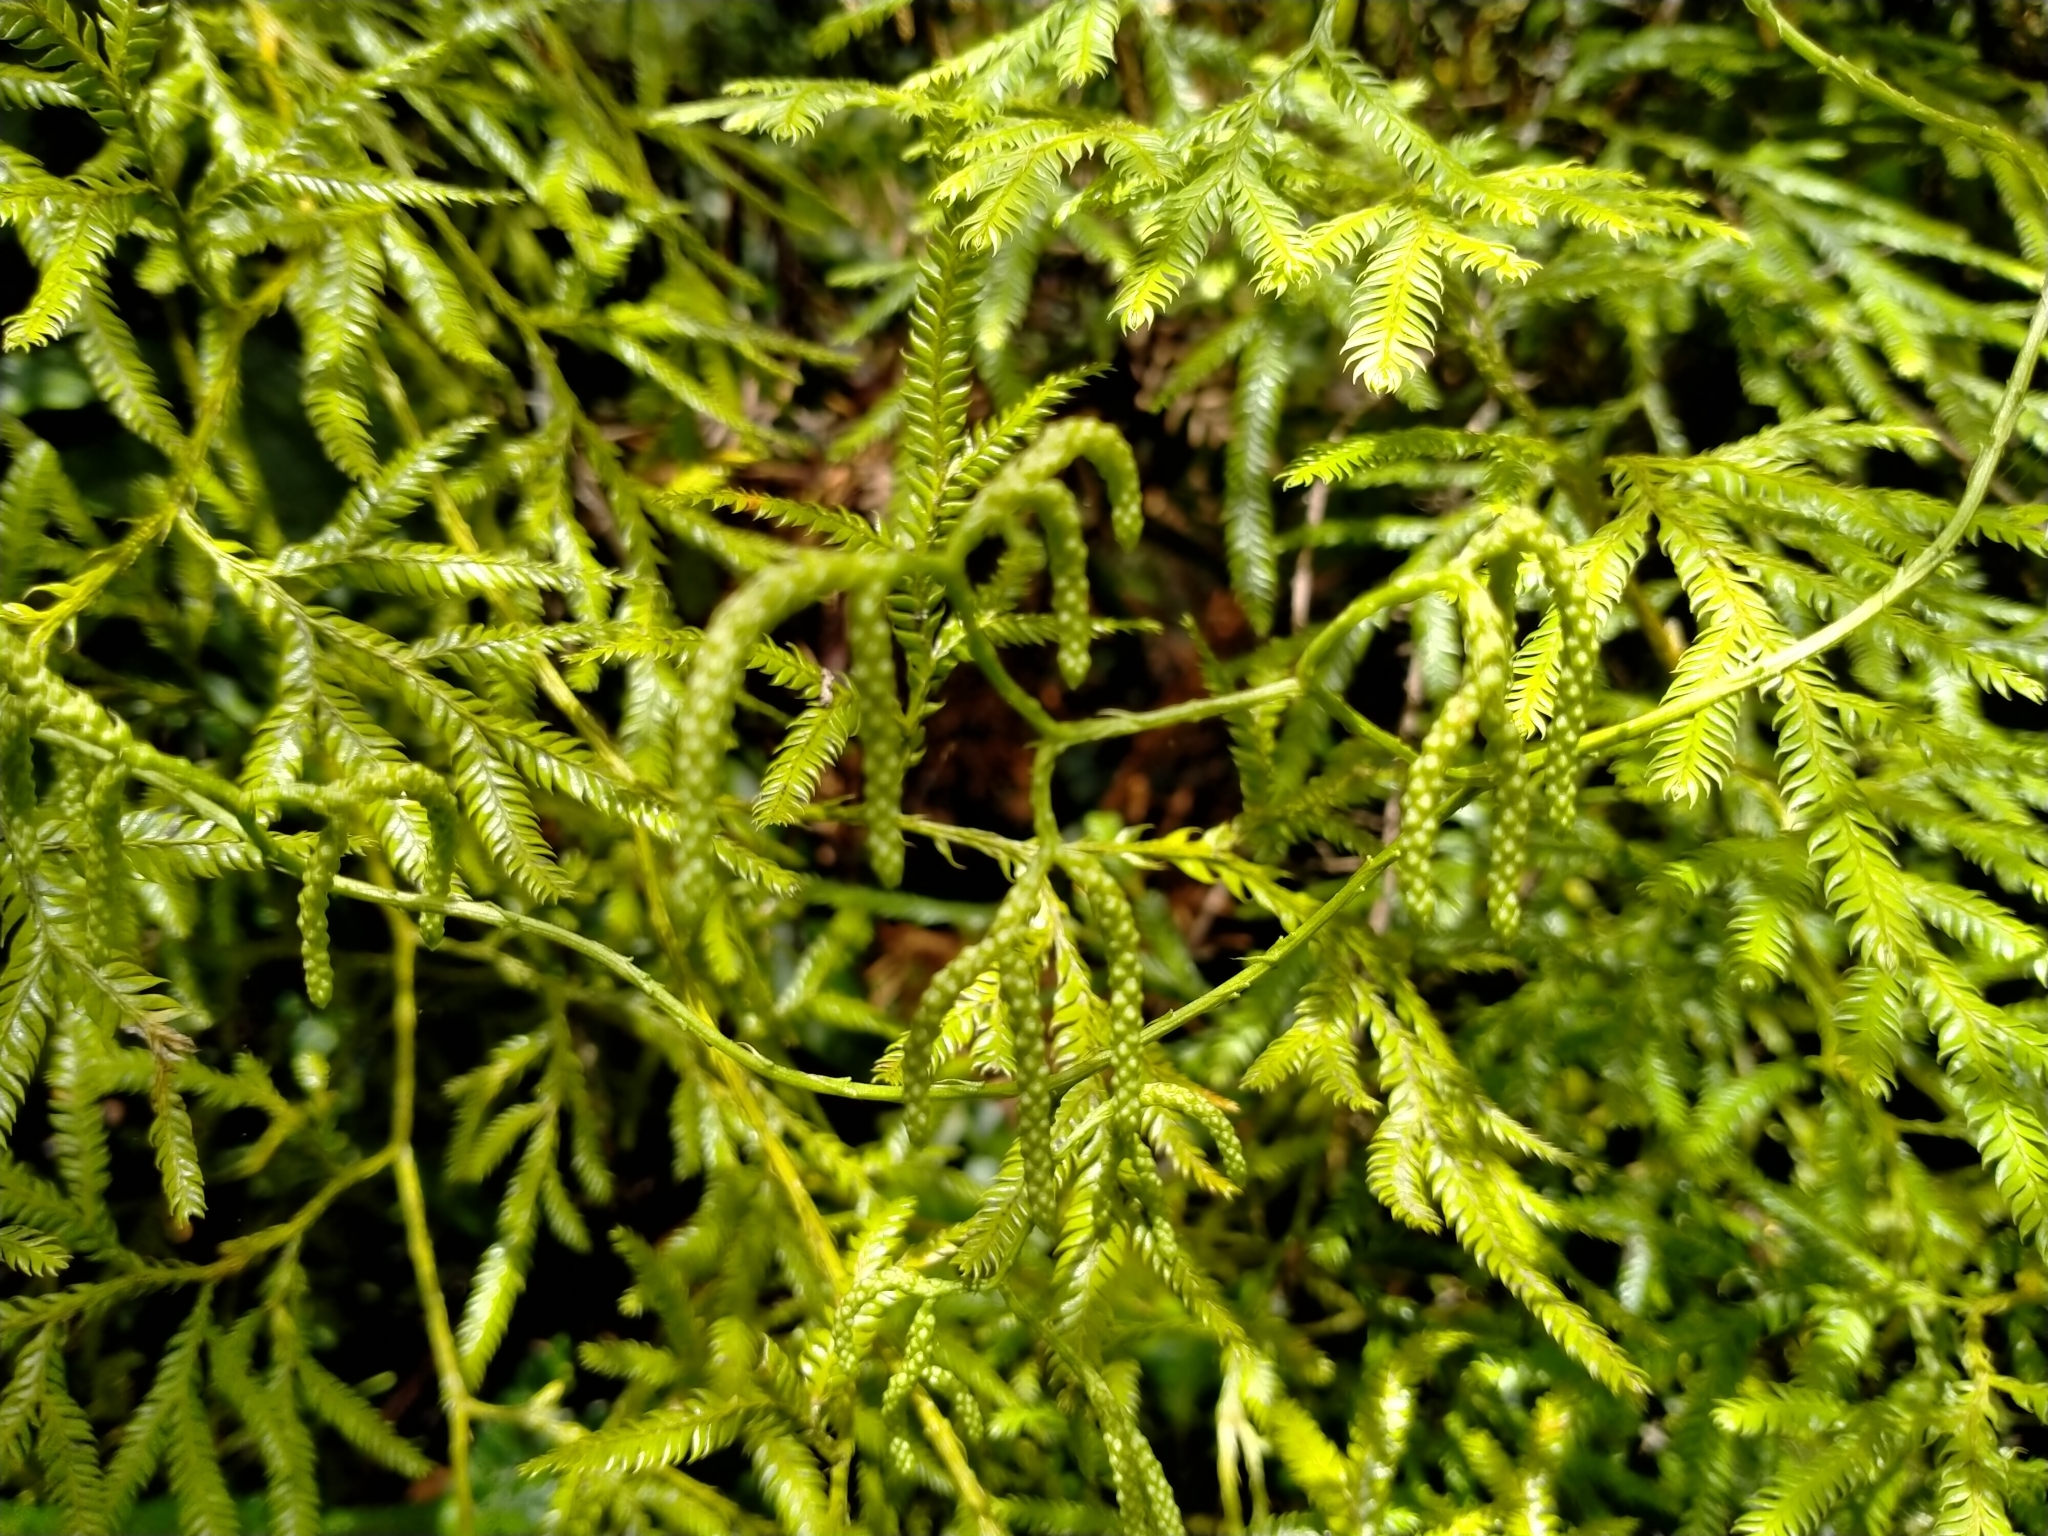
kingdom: Plantae
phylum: Tracheophyta
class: Lycopodiopsida
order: Lycopodiales
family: Lycopodiaceae
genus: Lycopodium
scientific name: Lycopodium volubile
